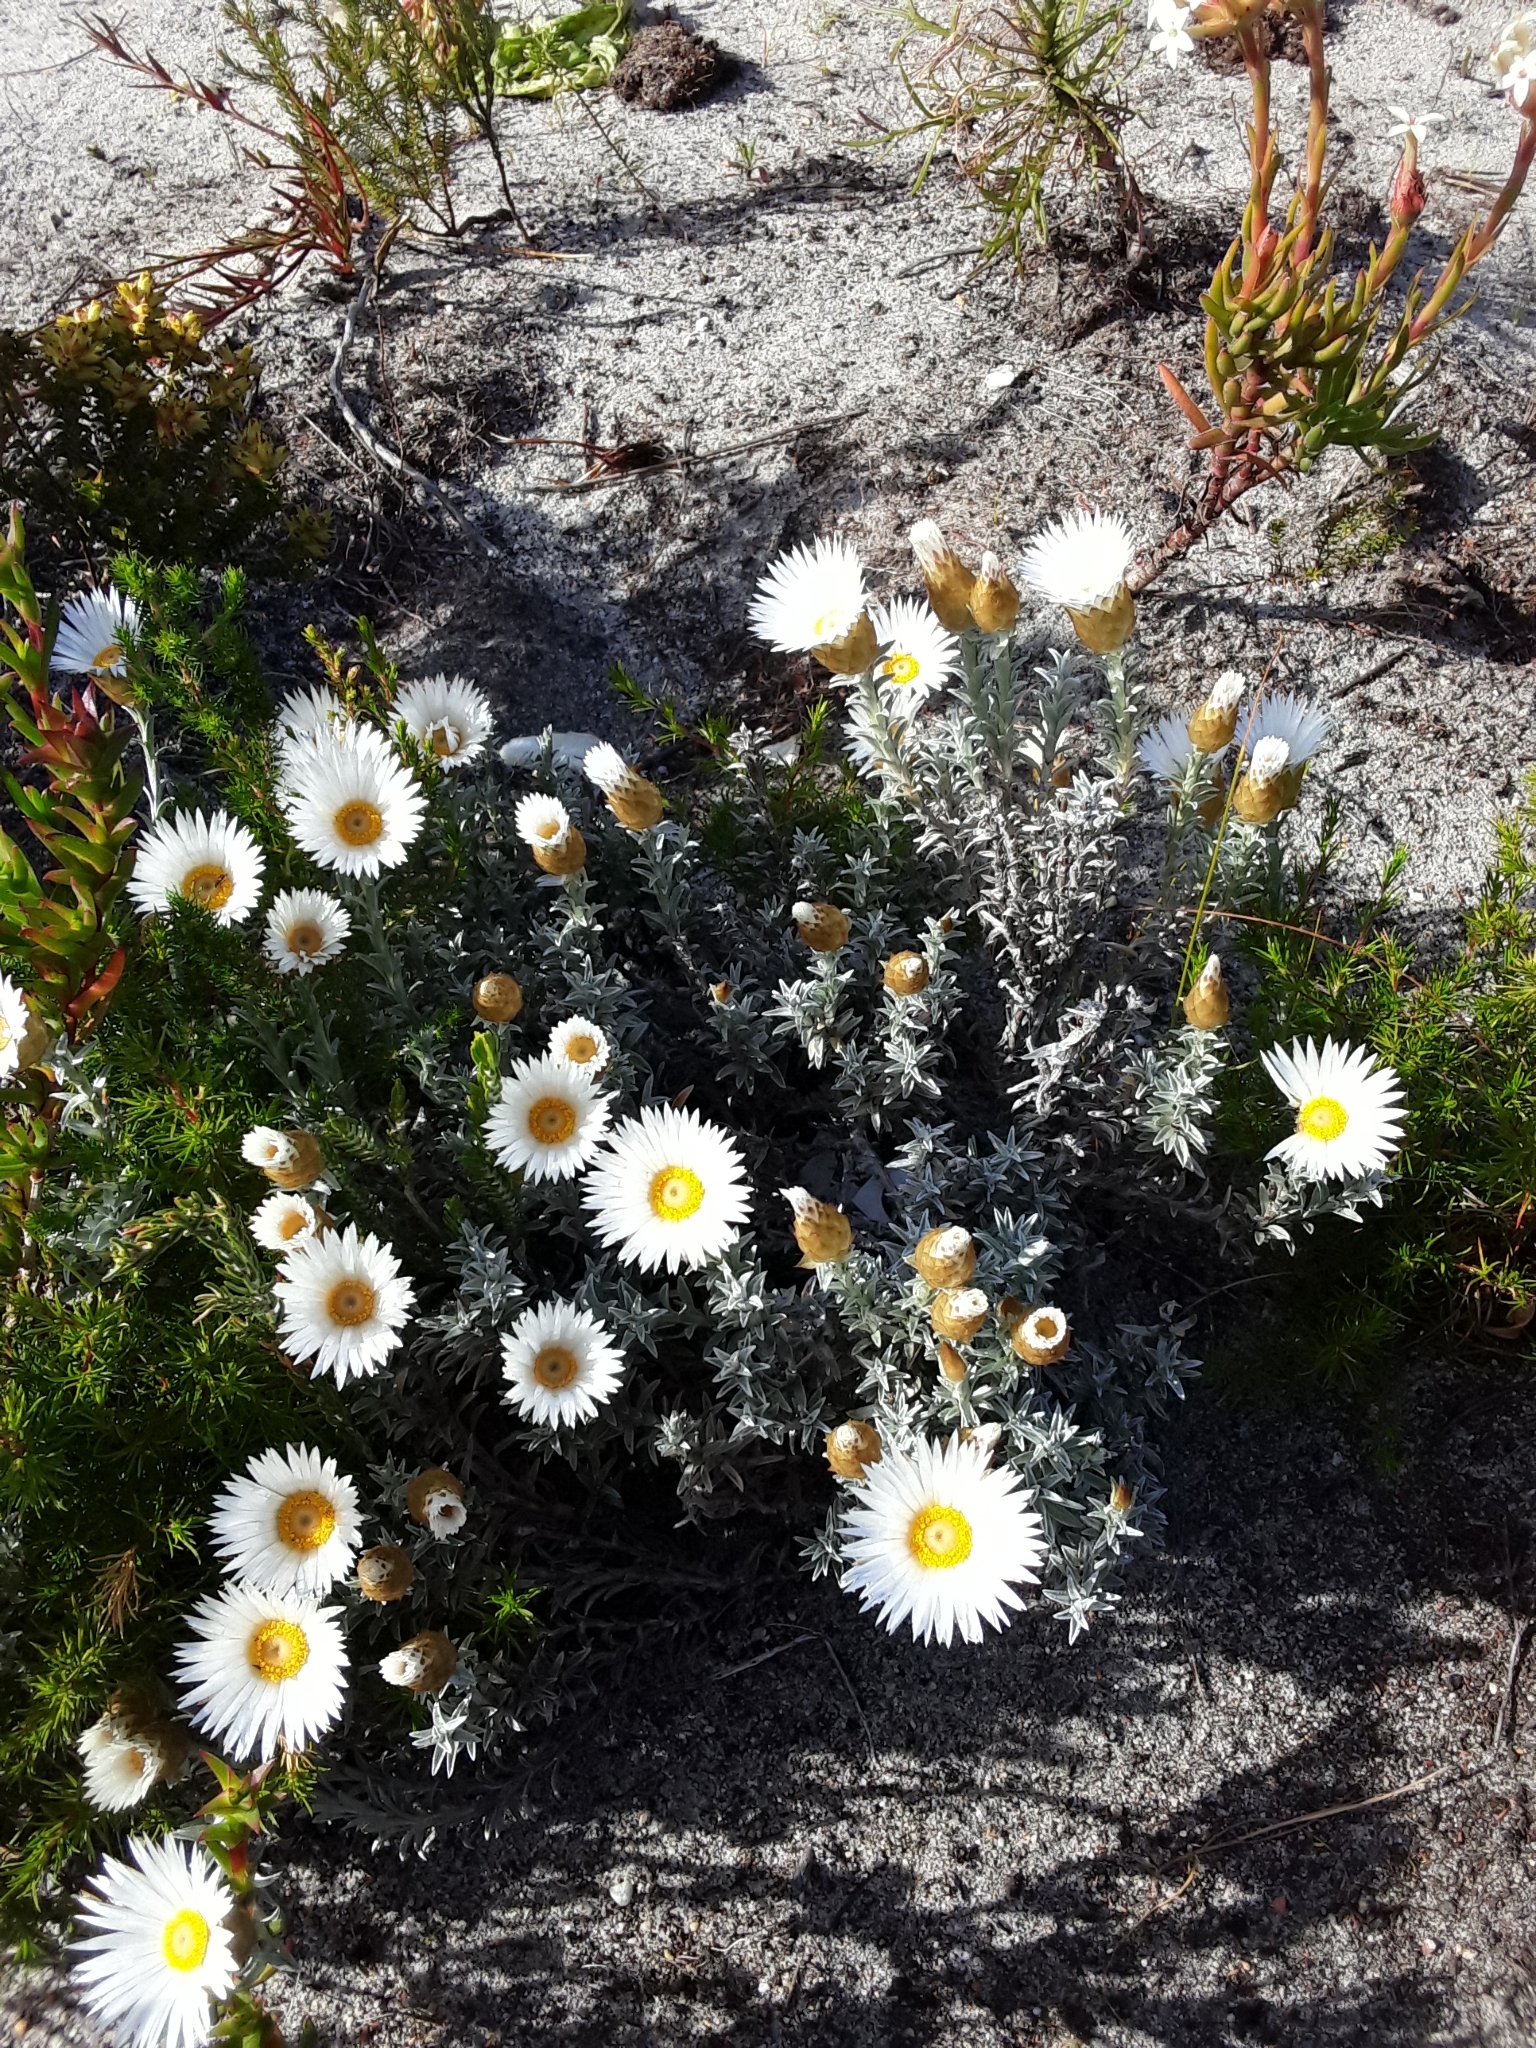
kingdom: Plantae
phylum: Tracheophyta
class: Magnoliopsida
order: Asterales
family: Asteraceae
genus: Helichrysum
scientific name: Helichrysum retortum
